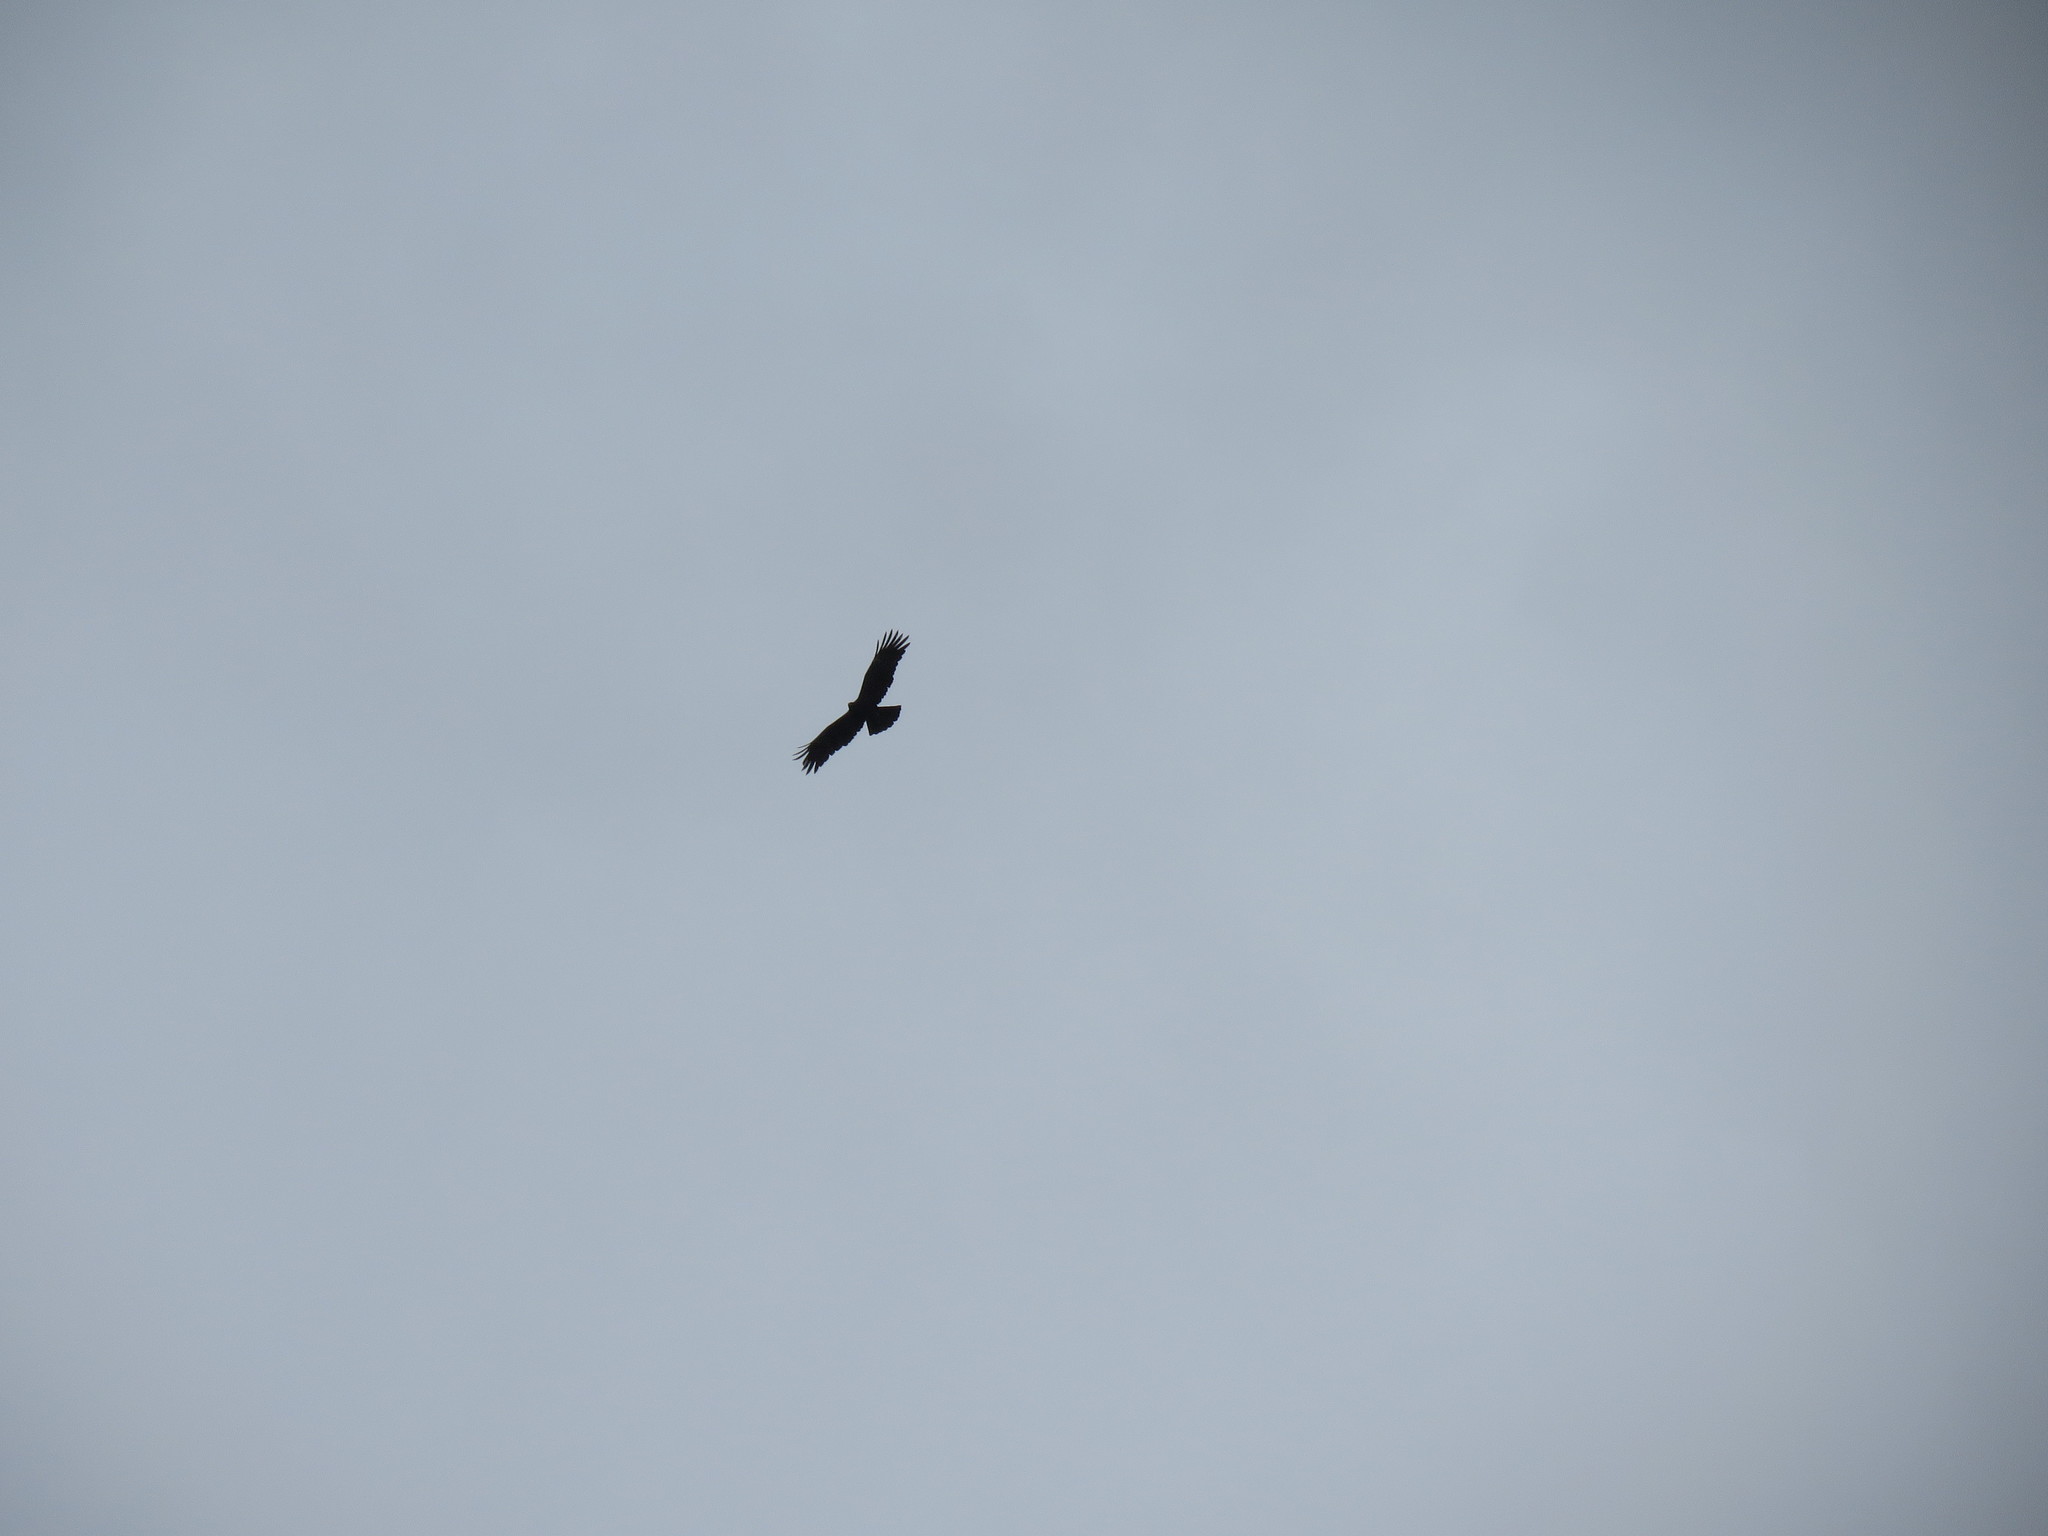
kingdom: Animalia
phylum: Chordata
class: Aves
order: Accipitriformes
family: Accipitridae
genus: Ictinaetus
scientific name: Ictinaetus malayensis
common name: Black eagle
